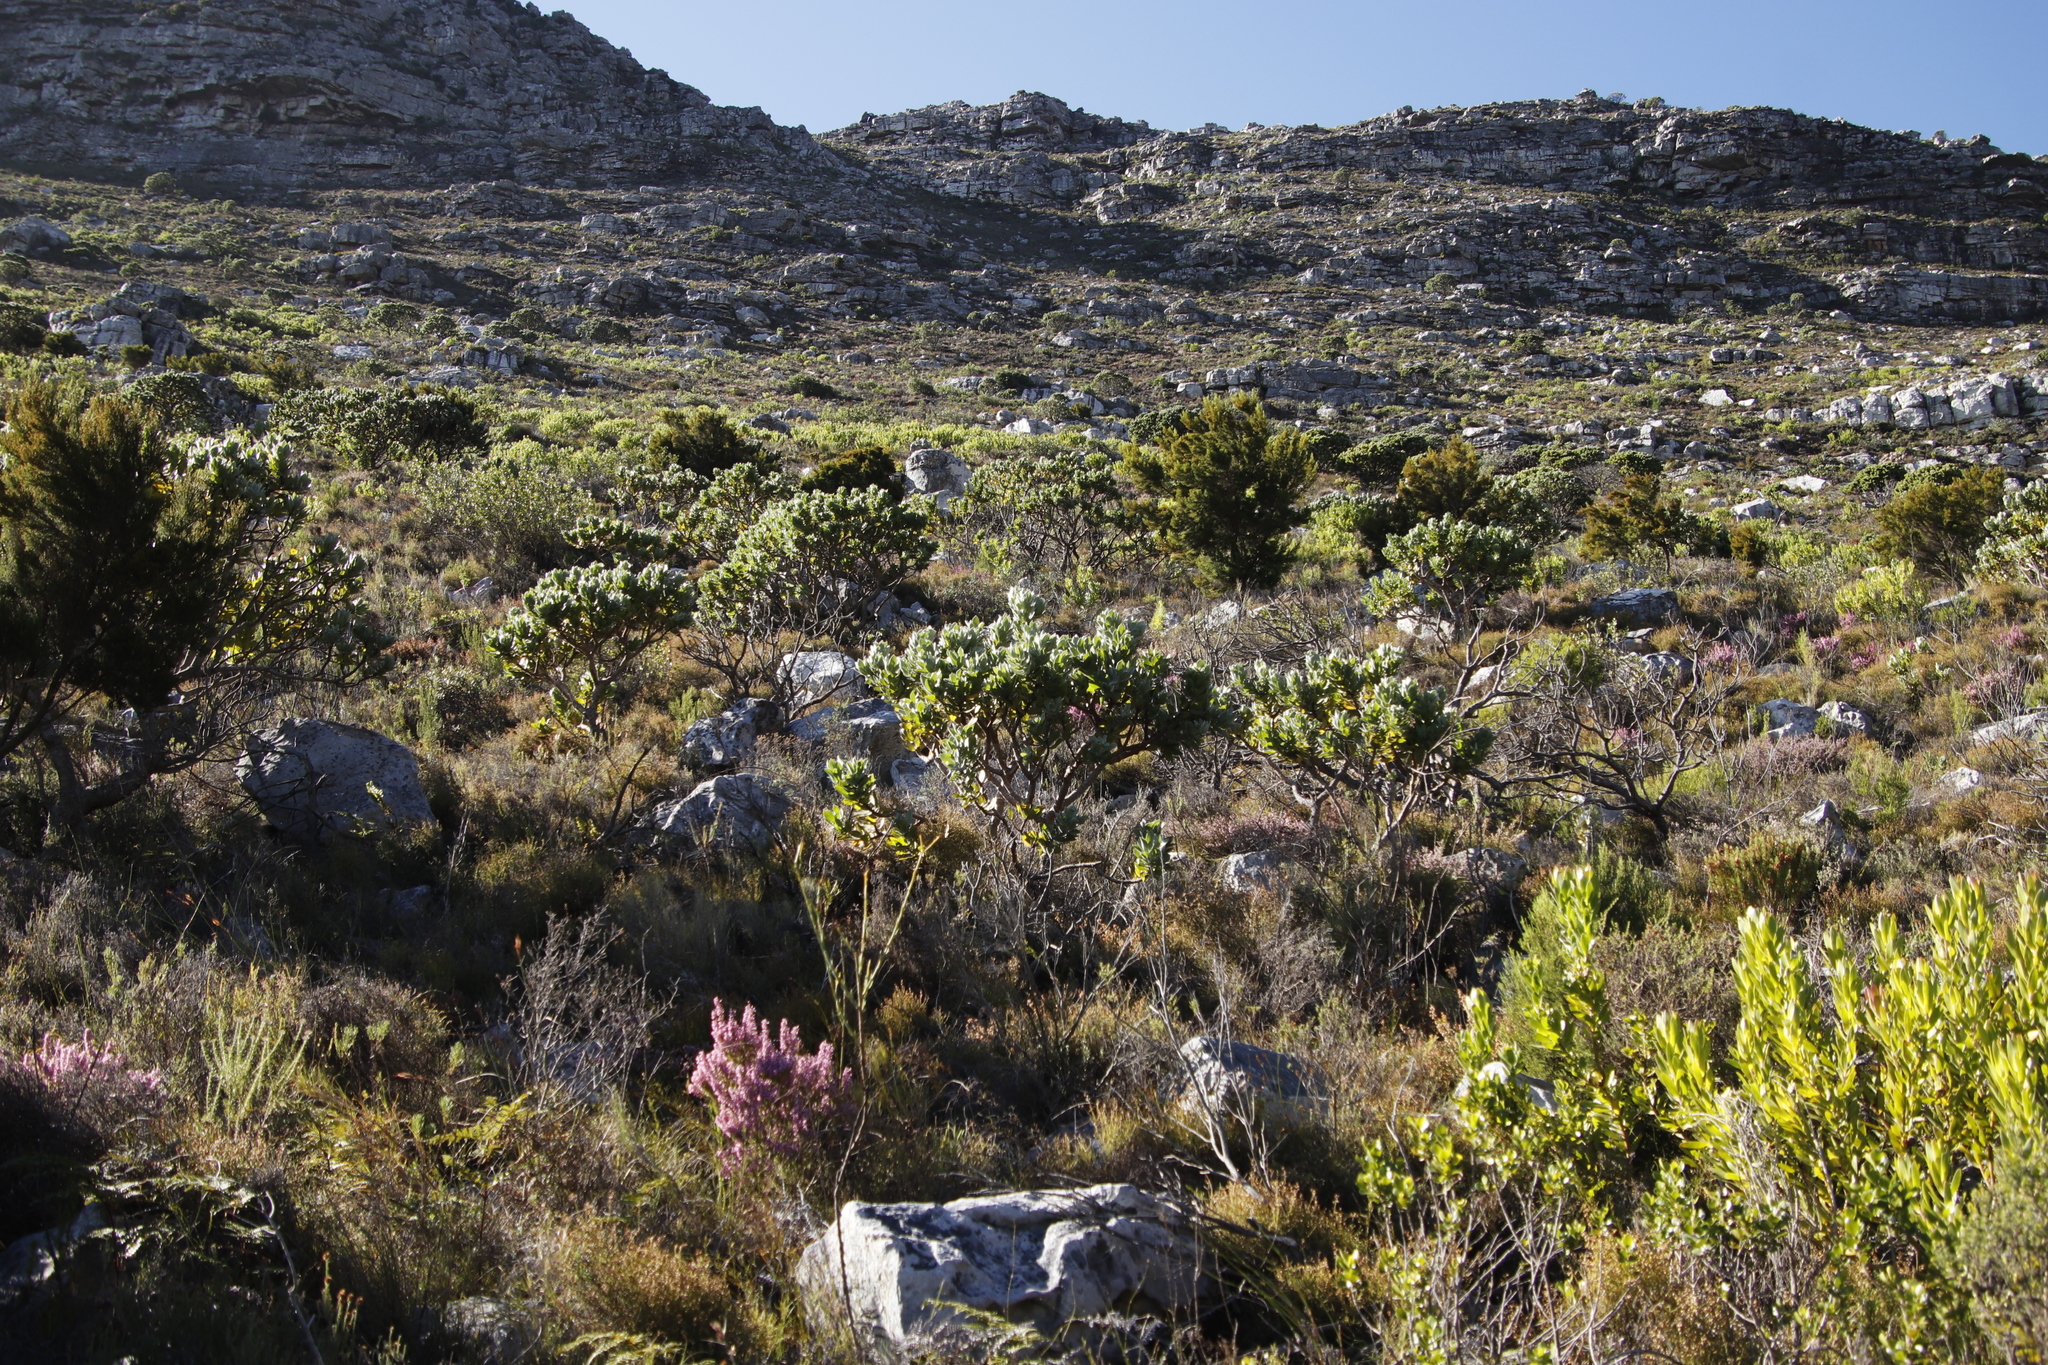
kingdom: Plantae
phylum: Tracheophyta
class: Magnoliopsida
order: Proteales
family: Proteaceae
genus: Leucospermum
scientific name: Leucospermum conocarpodendron
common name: Tree pincushion
